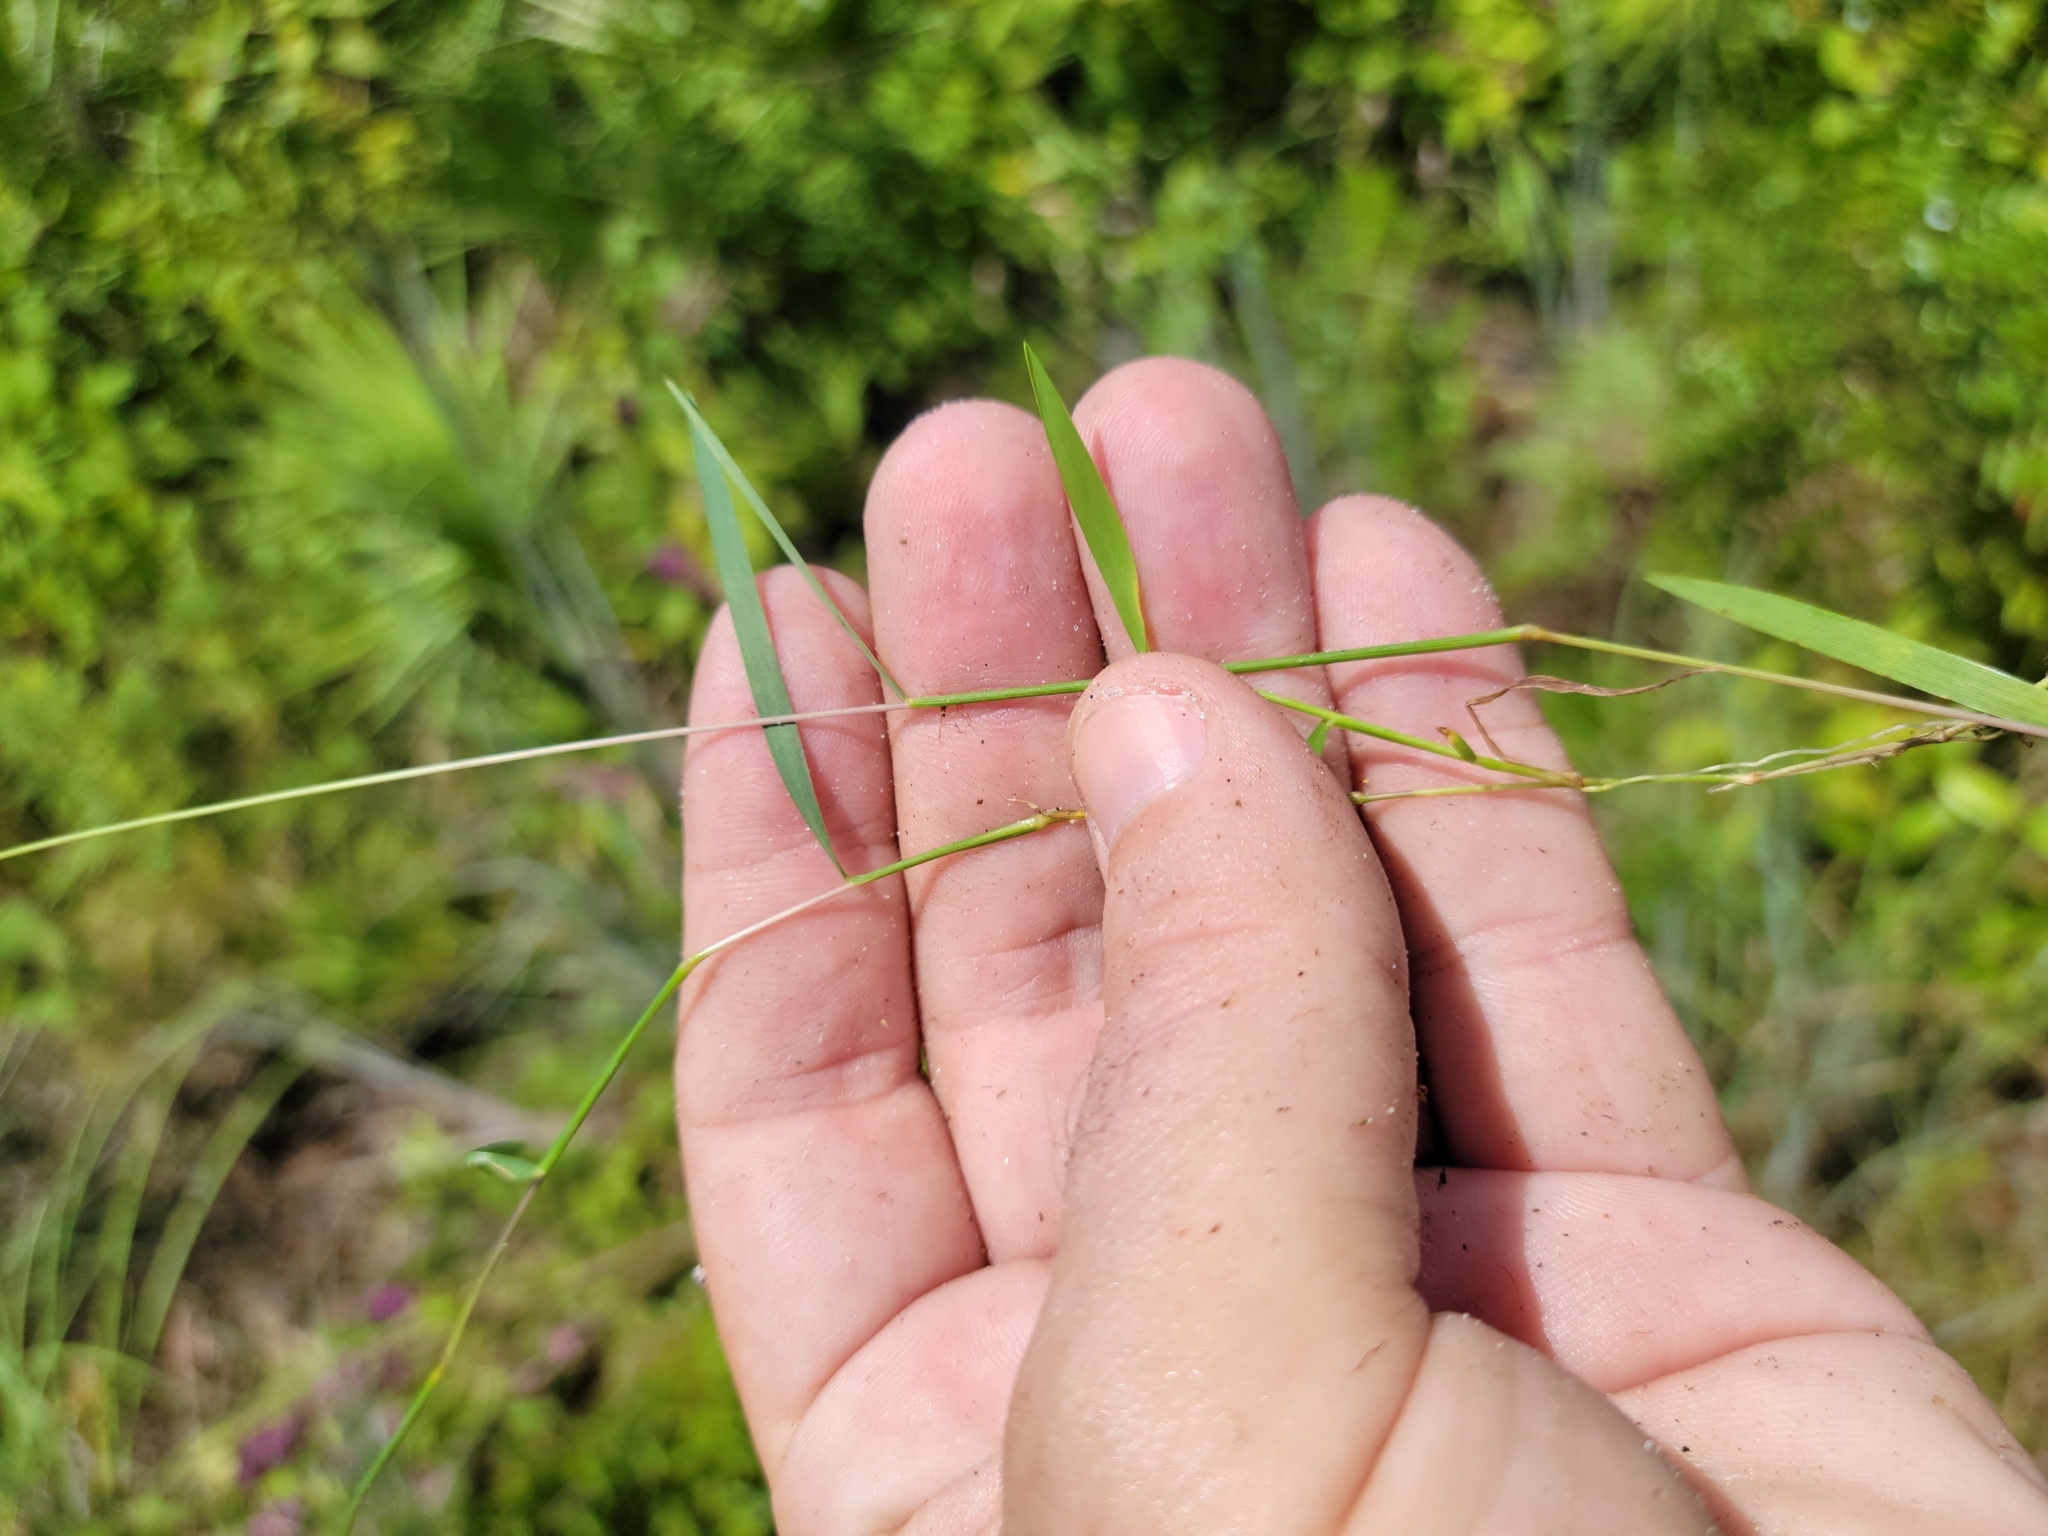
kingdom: Plantae
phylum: Tracheophyta
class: Liliopsida
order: Poales
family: Poaceae
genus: Sacciolepis
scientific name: Sacciolepis indica
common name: Glenwoodgrass
